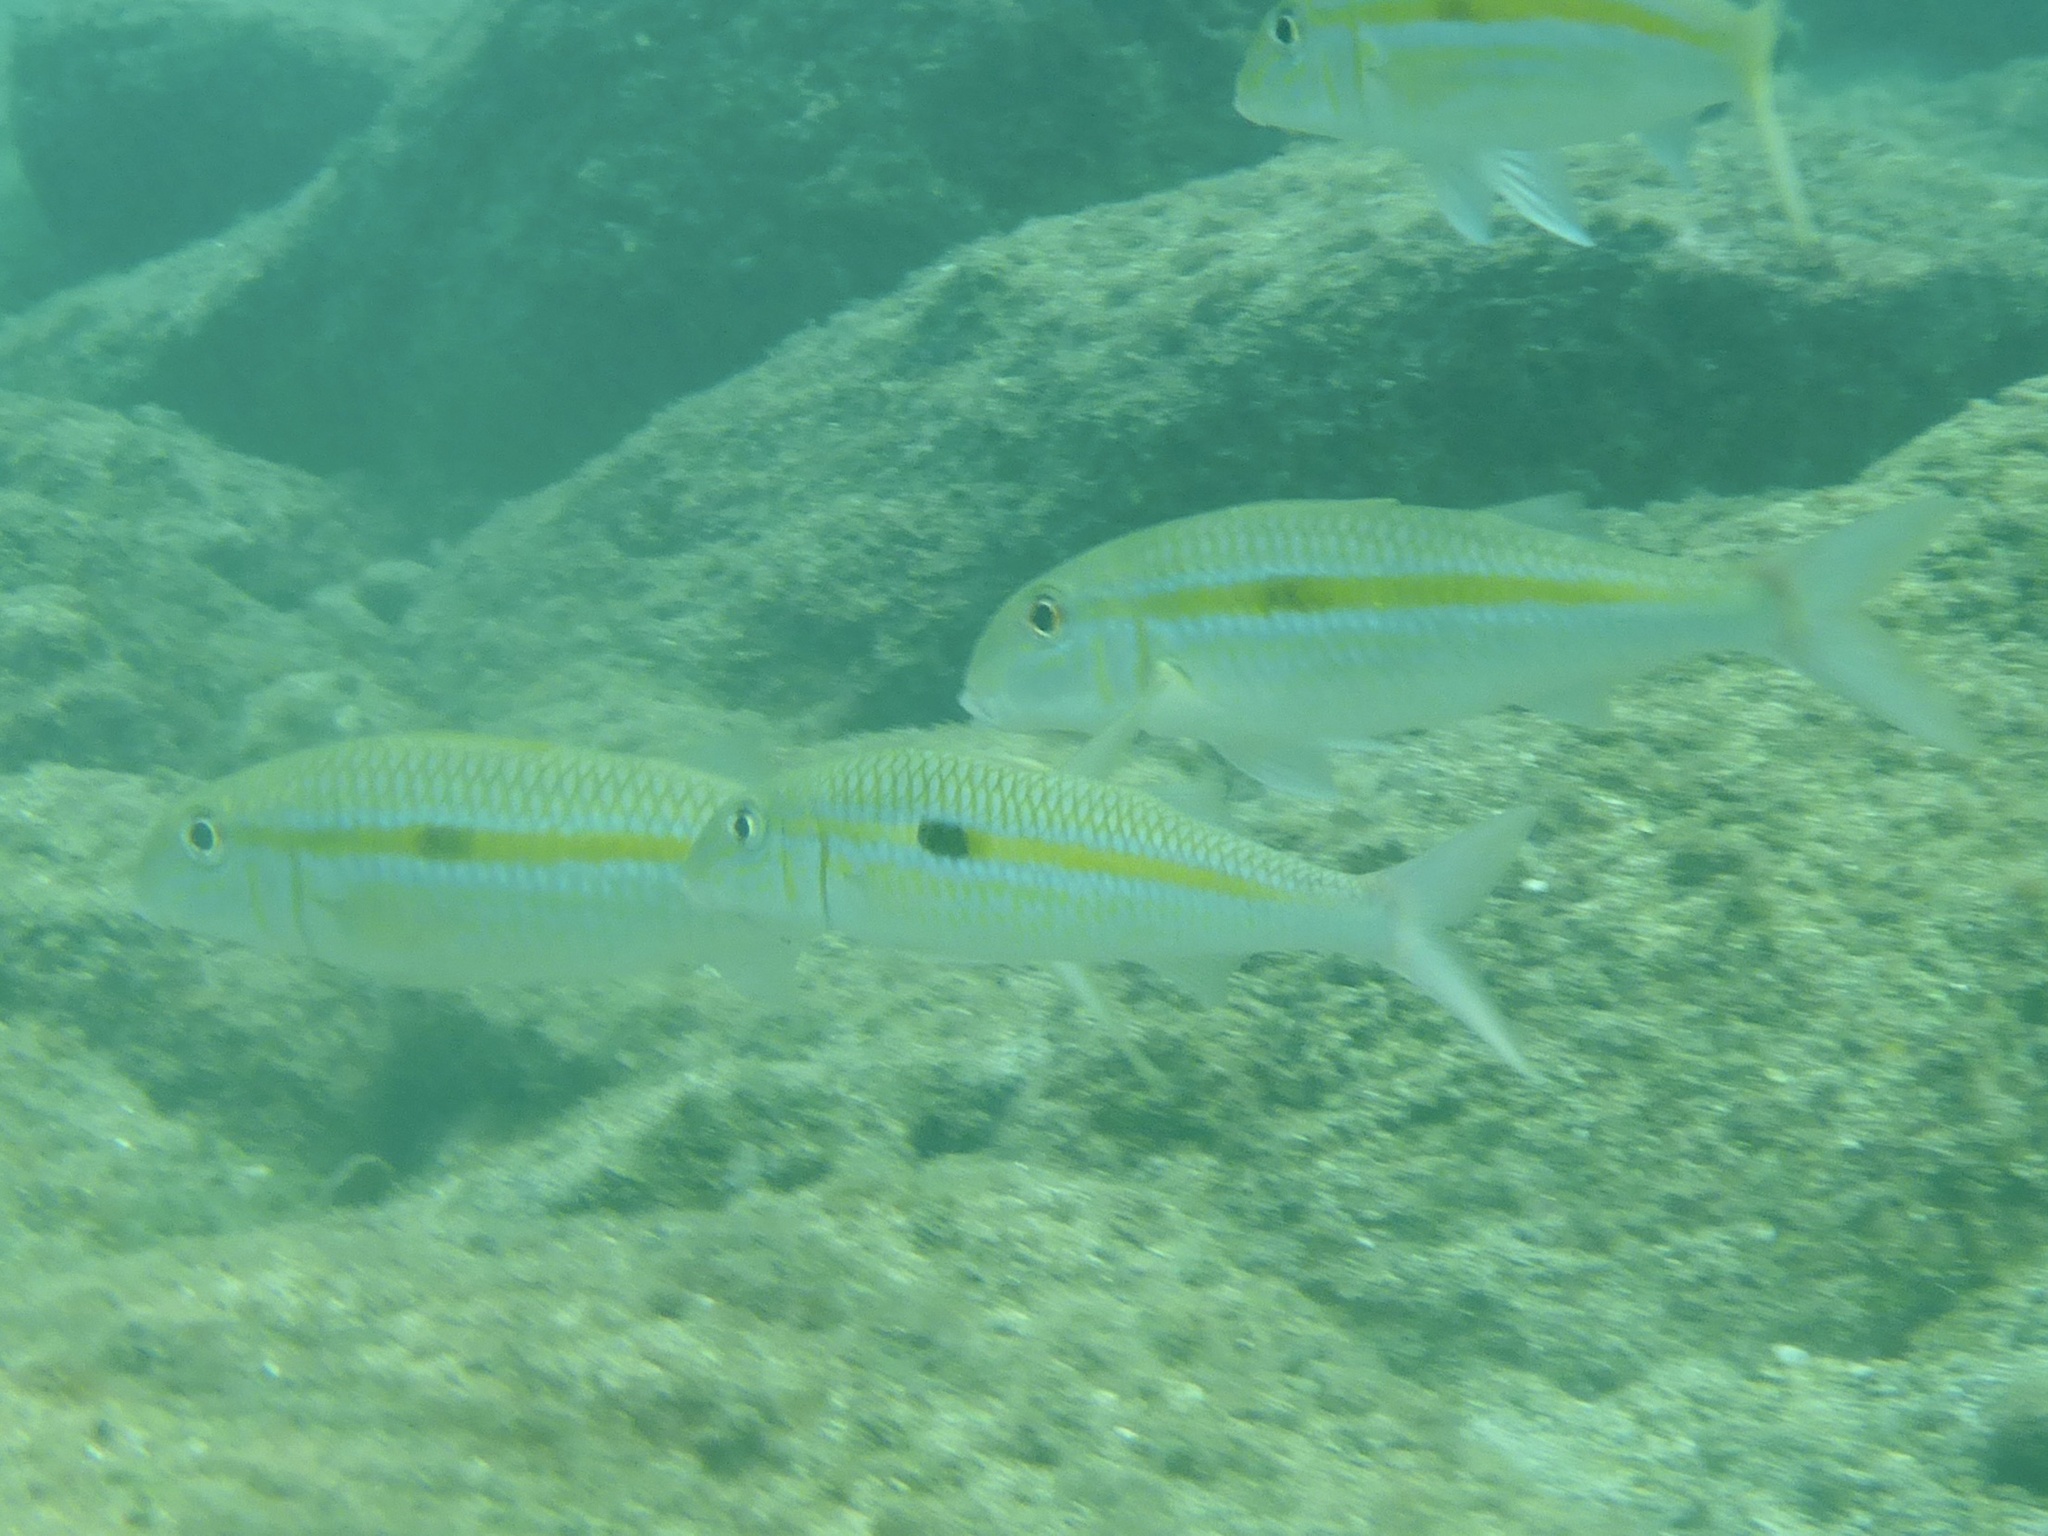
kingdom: Animalia
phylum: Chordata
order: Perciformes
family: Mullidae
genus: Mulloidichthys
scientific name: Mulloidichthys flavolineatus
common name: Yellowstripe goatfish
